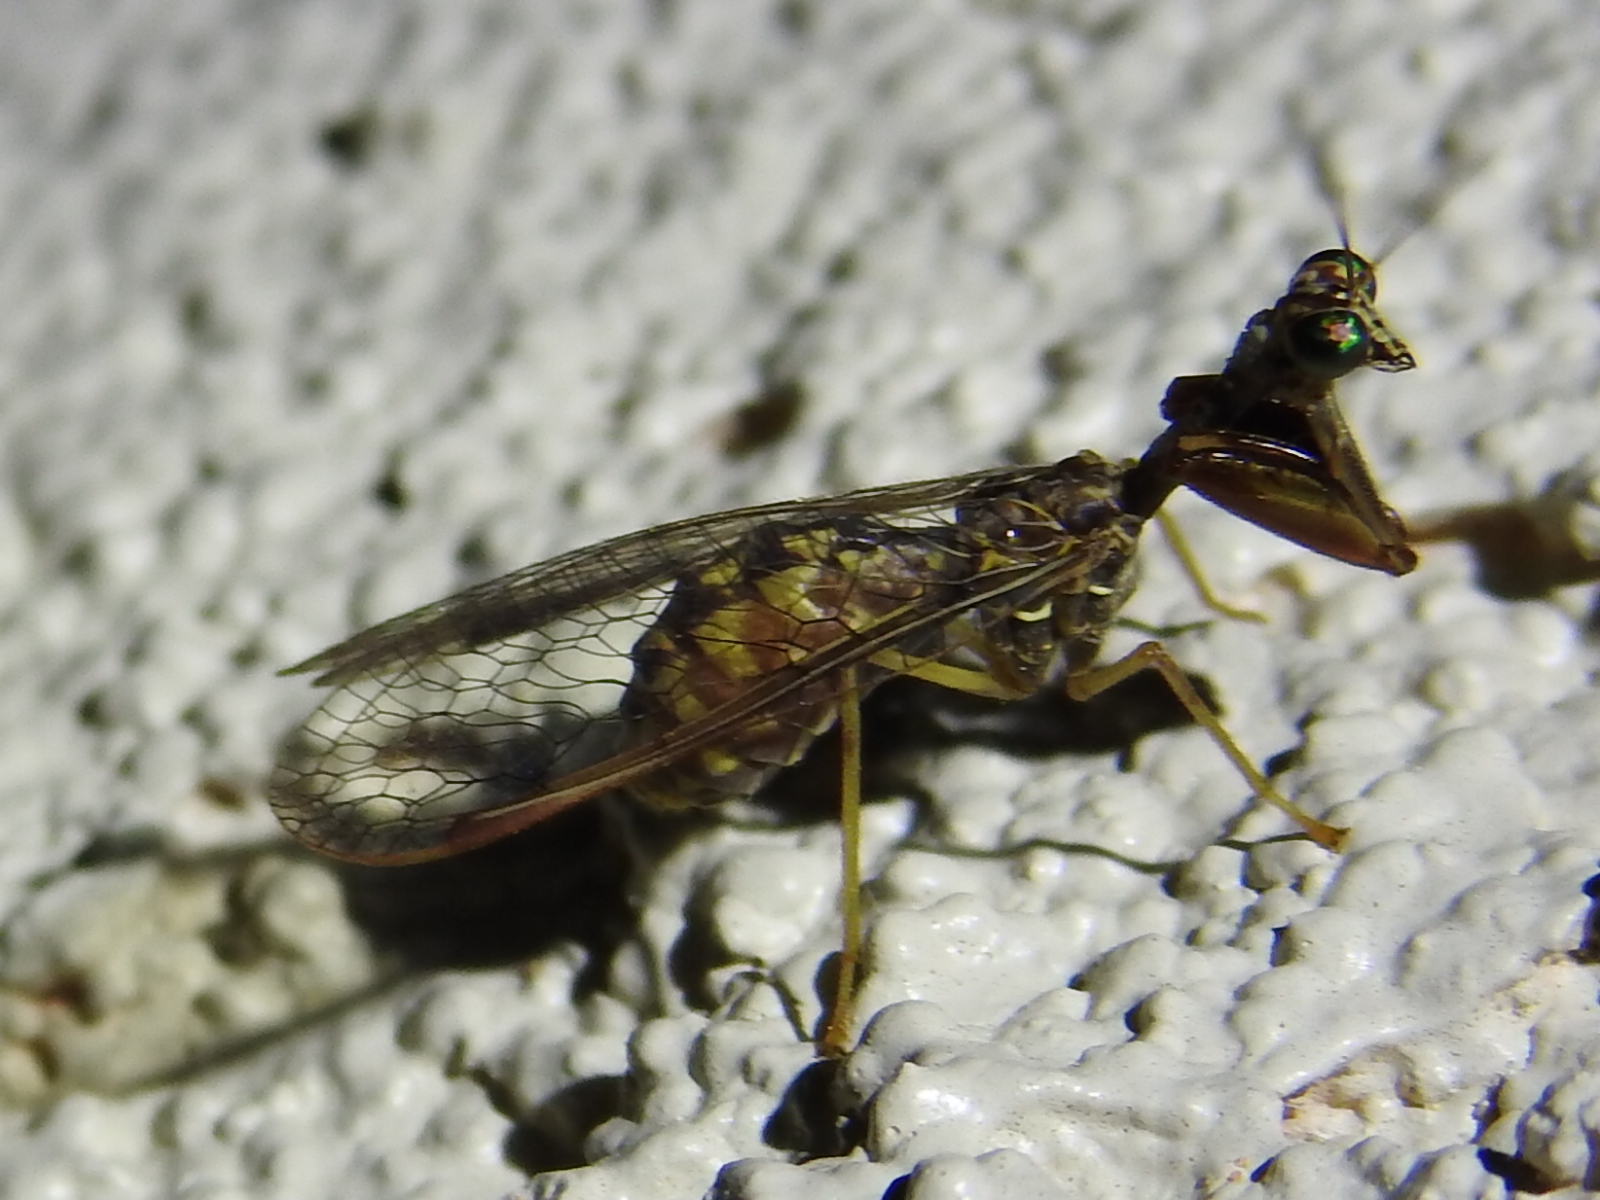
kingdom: Animalia
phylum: Arthropoda
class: Insecta
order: Neuroptera
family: Mantispidae
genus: Dicromantispa
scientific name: Dicromantispa sayi
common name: Say's mantidfly
